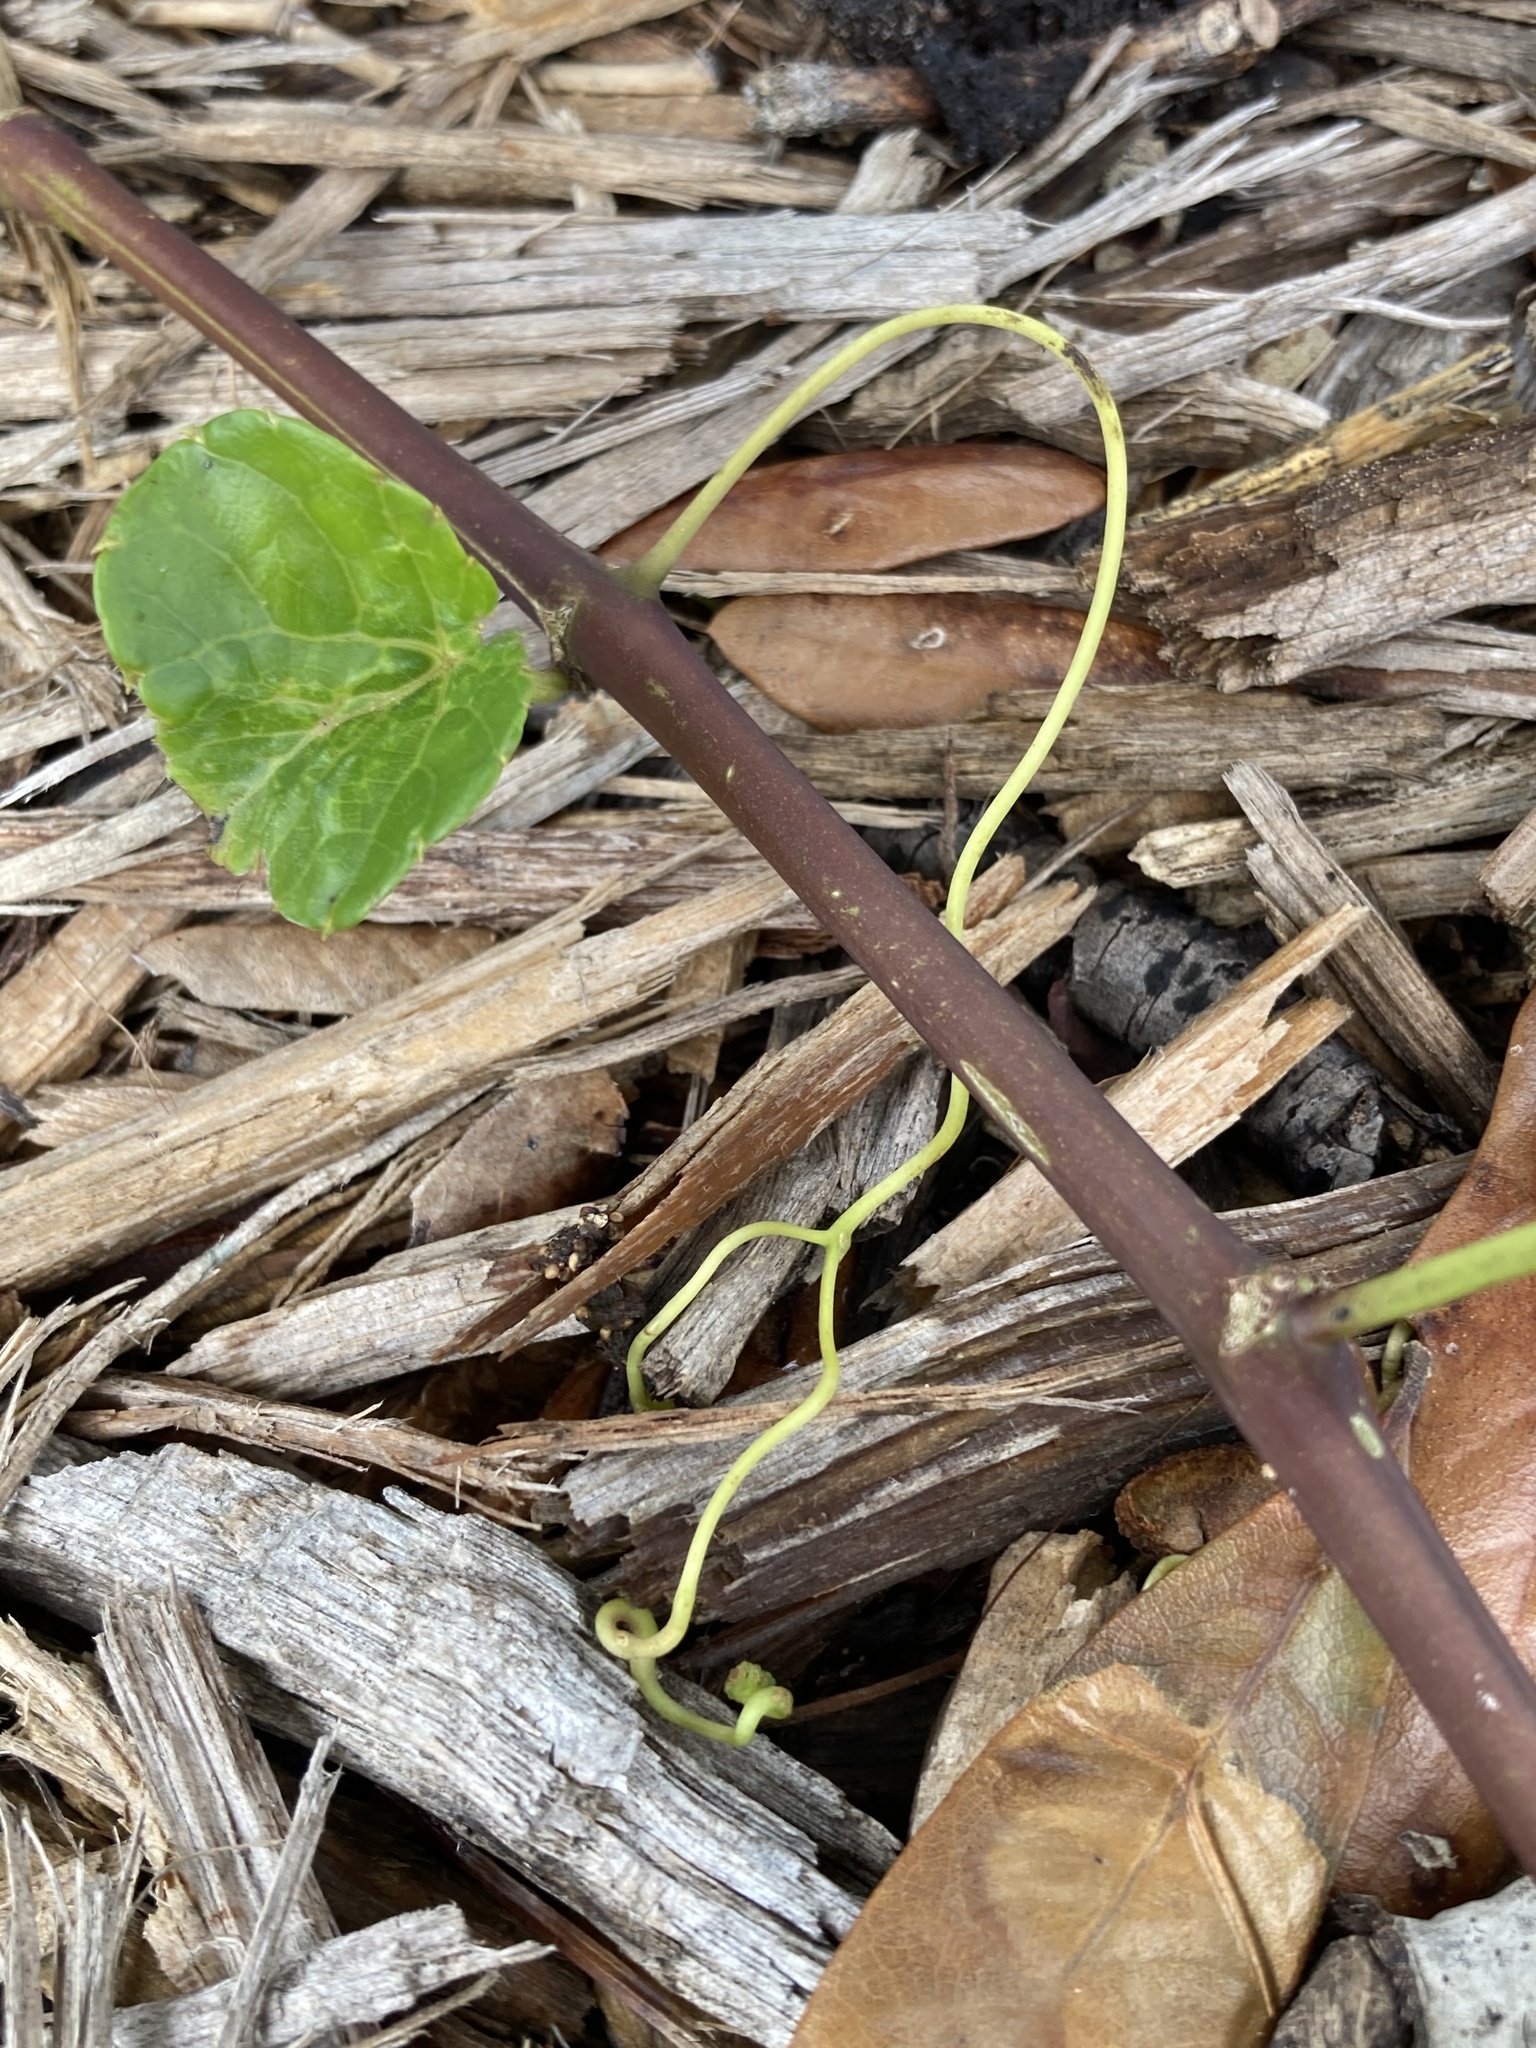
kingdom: Plantae
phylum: Tracheophyta
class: Magnoliopsida
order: Vitales
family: Vitaceae
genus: Cissus
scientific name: Cissus verticillata
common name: Princess vine
